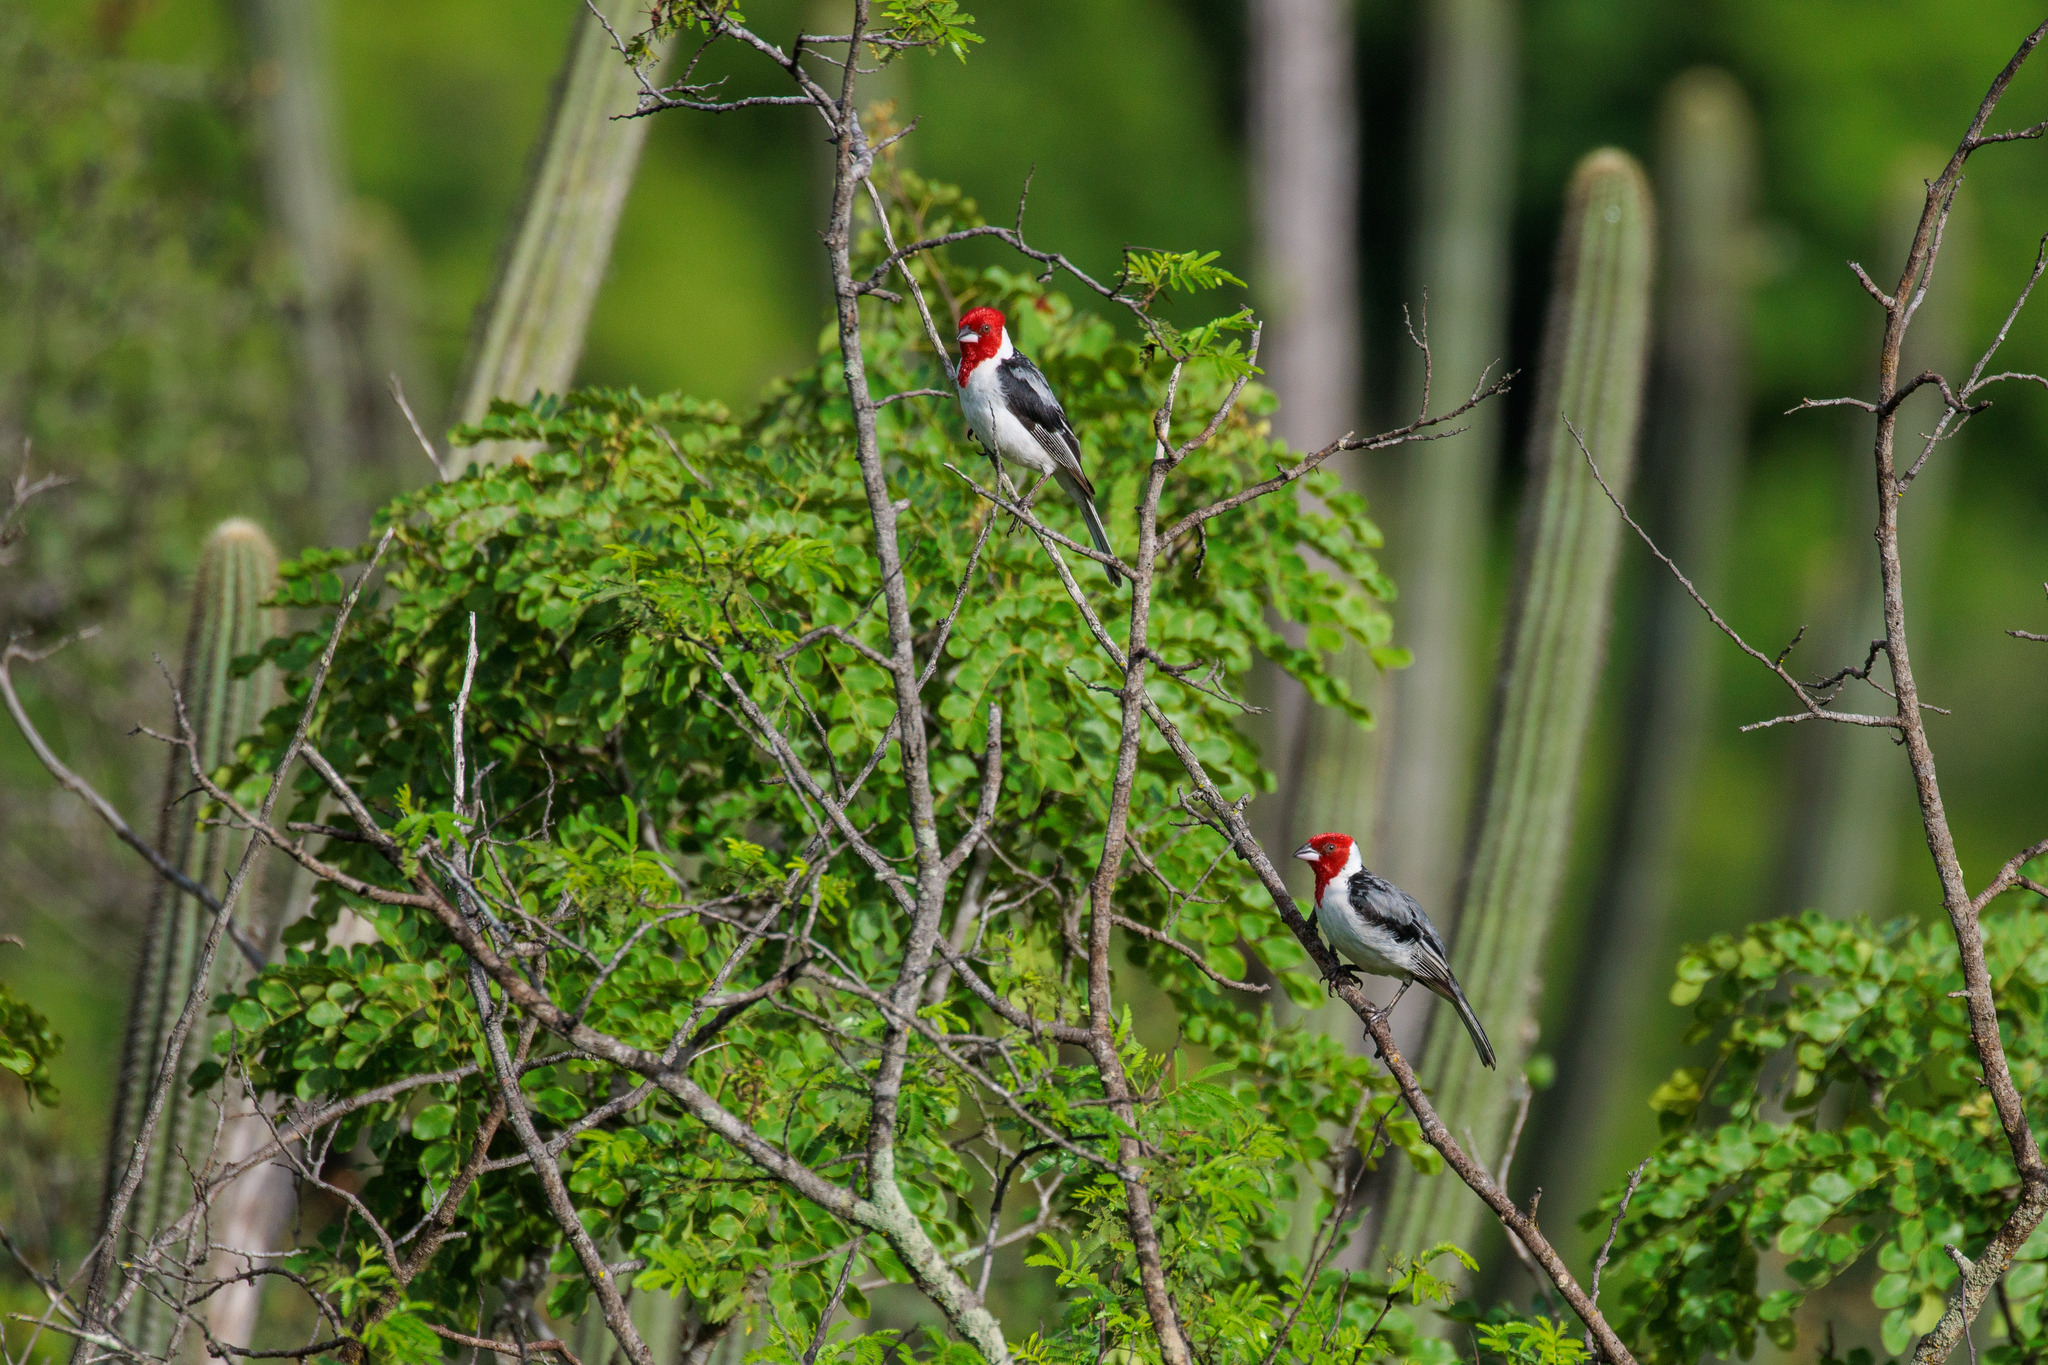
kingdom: Animalia
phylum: Chordata
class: Aves
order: Passeriformes
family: Thraupidae
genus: Paroaria
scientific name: Paroaria dominicana
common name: Red-cowled cardinal
